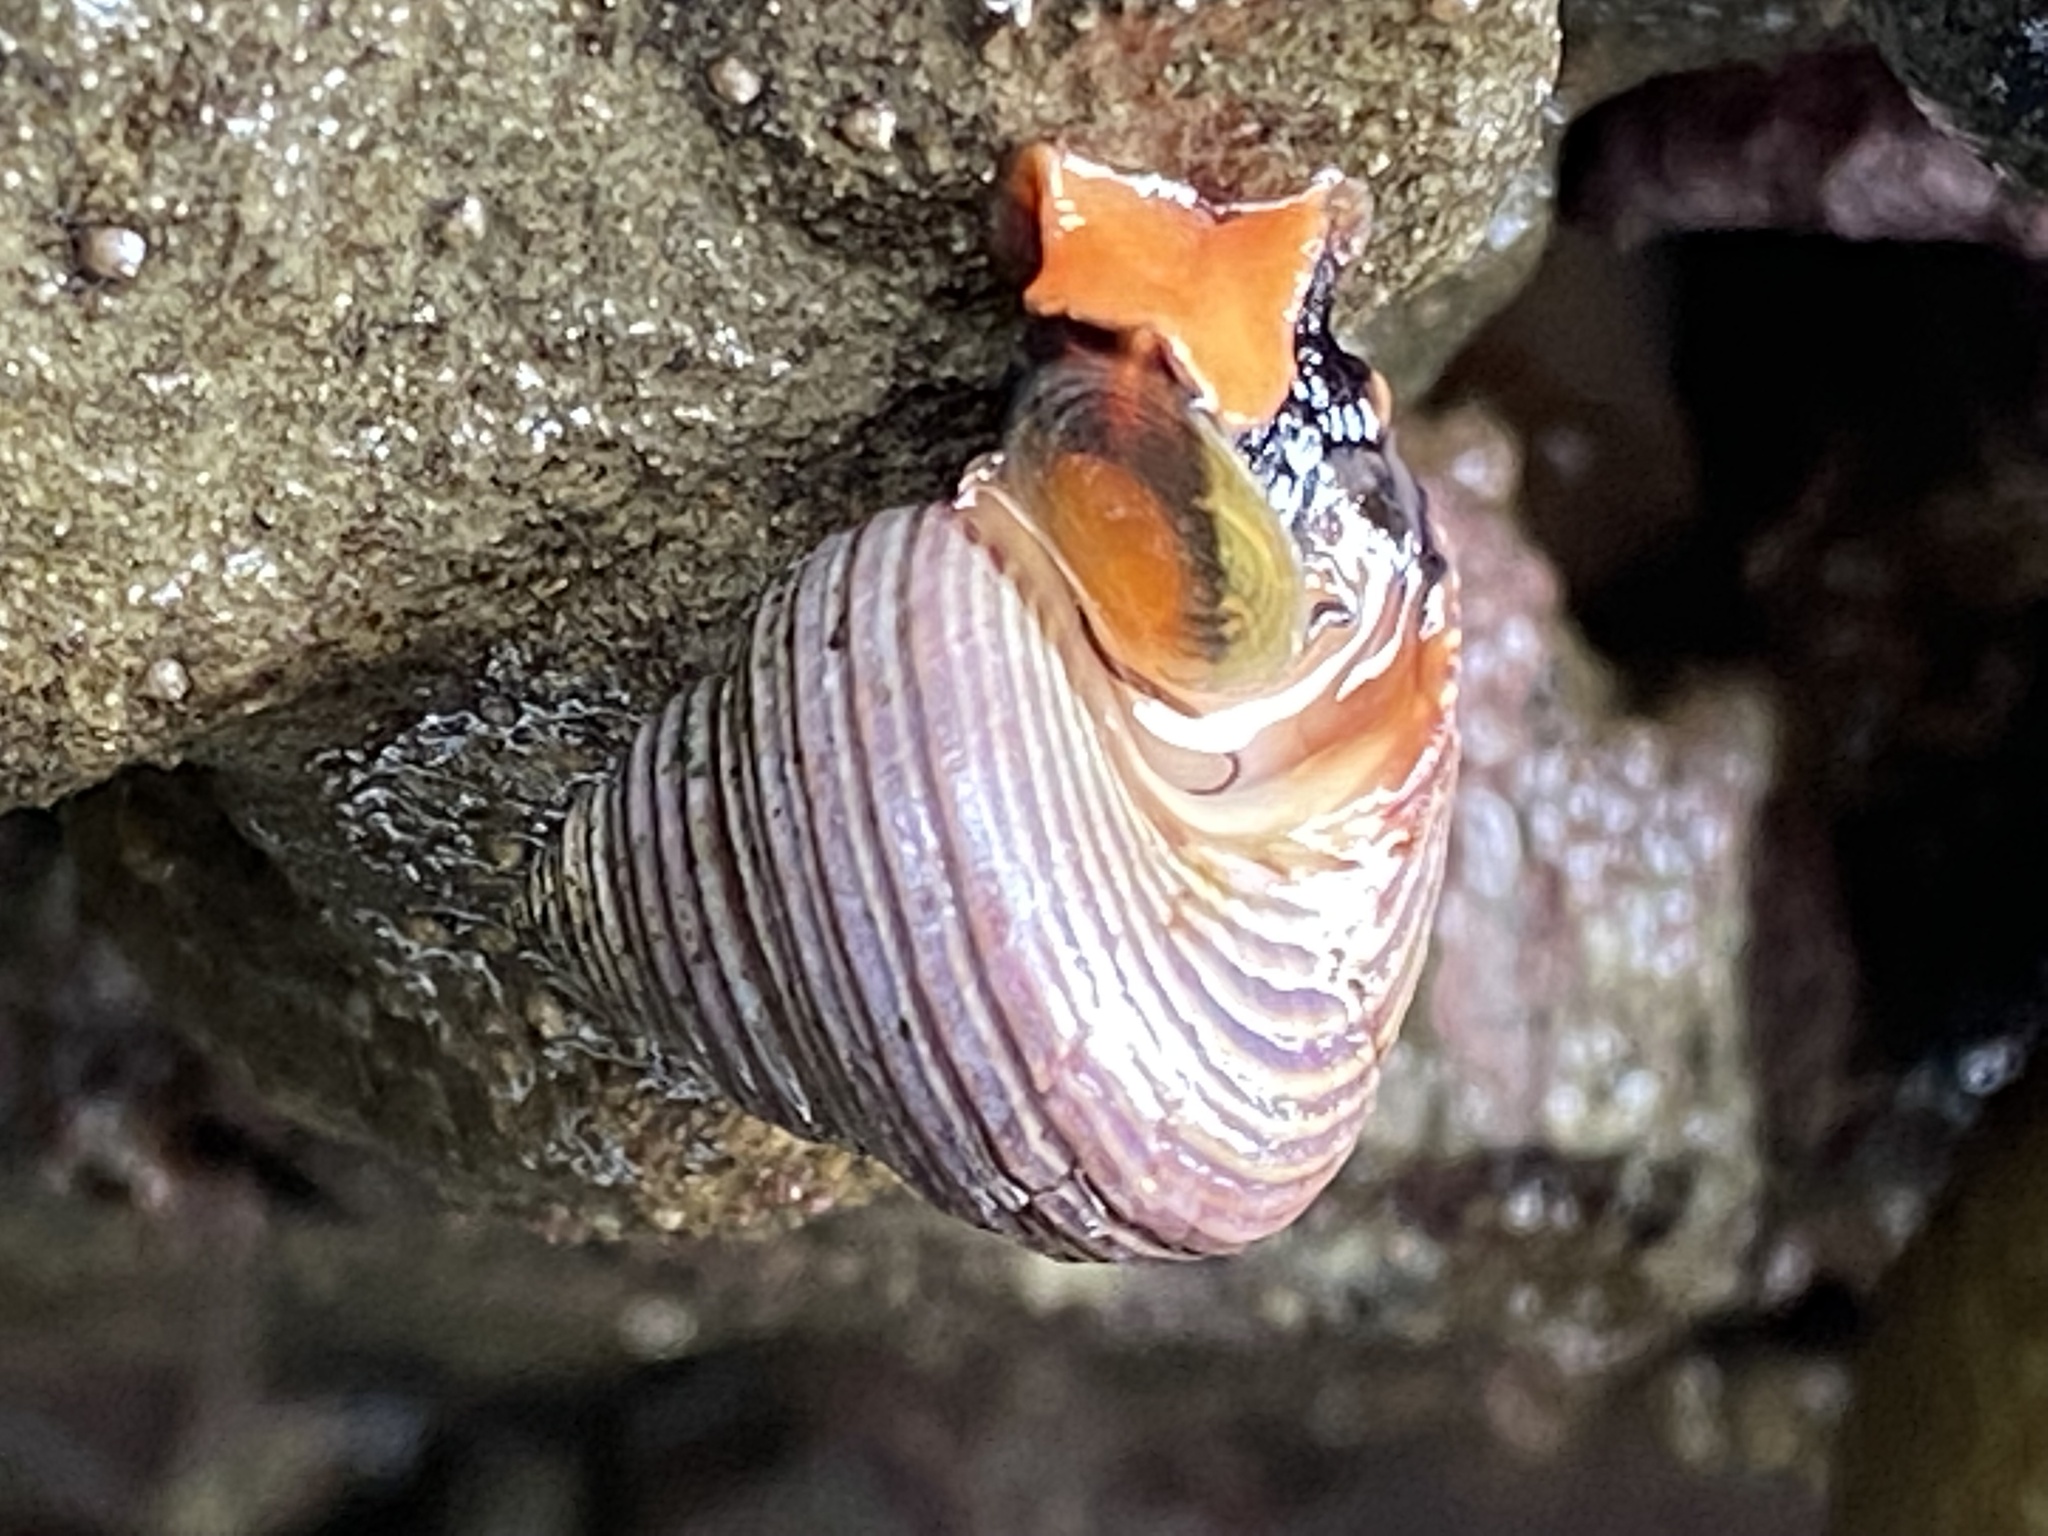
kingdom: Animalia
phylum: Mollusca
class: Gastropoda
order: Trochida
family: Calliostomatidae
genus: Calliostoma
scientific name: Calliostoma ligatum
